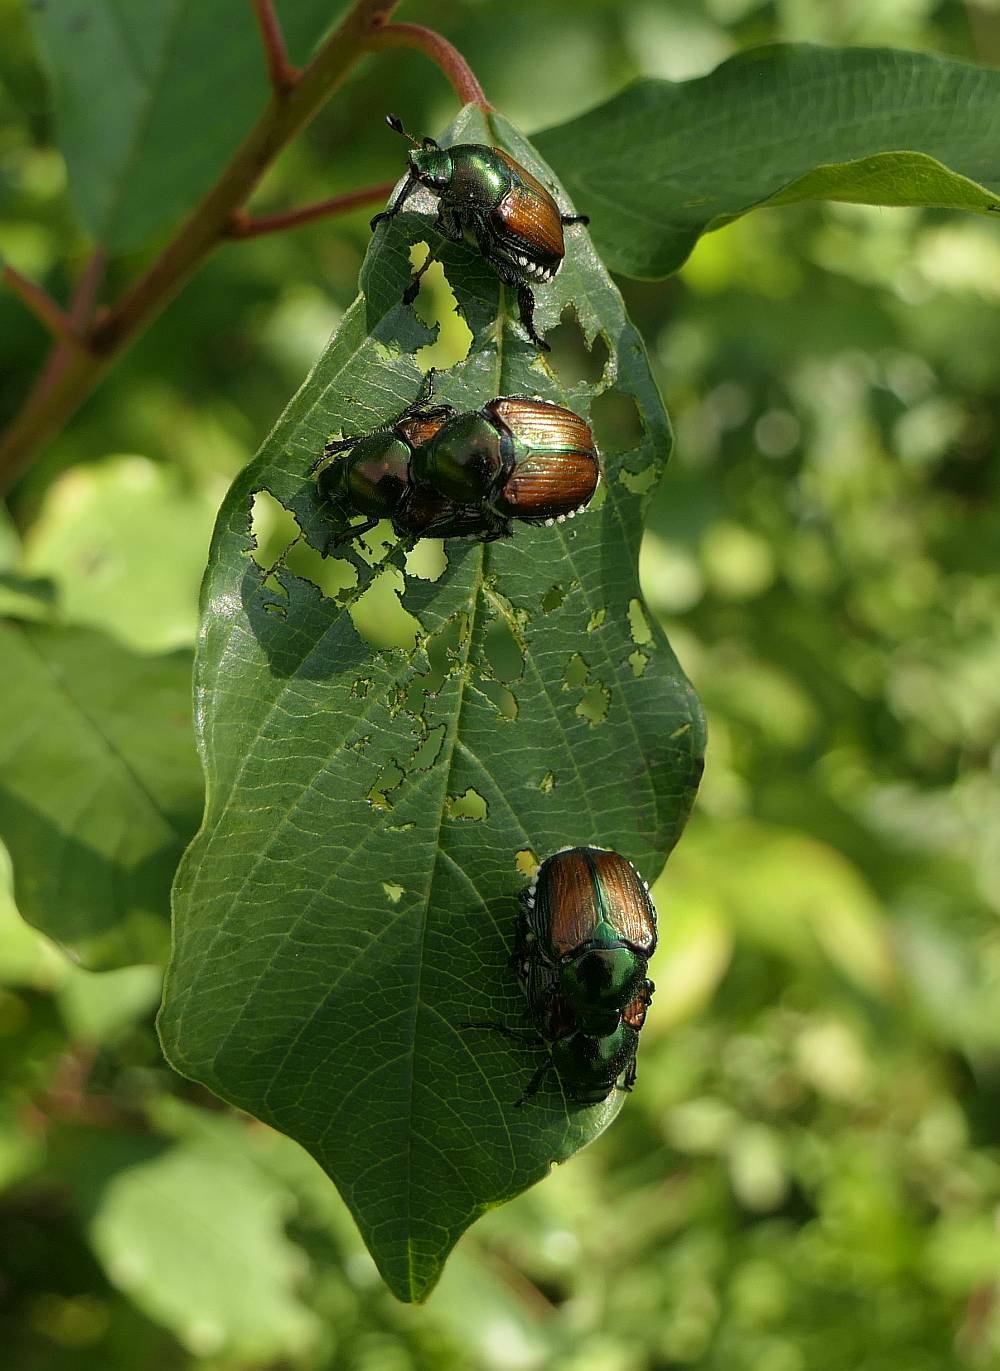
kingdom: Animalia
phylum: Arthropoda
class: Insecta
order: Coleoptera
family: Scarabaeidae
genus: Popillia
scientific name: Popillia japonica
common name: Japanese beetle
